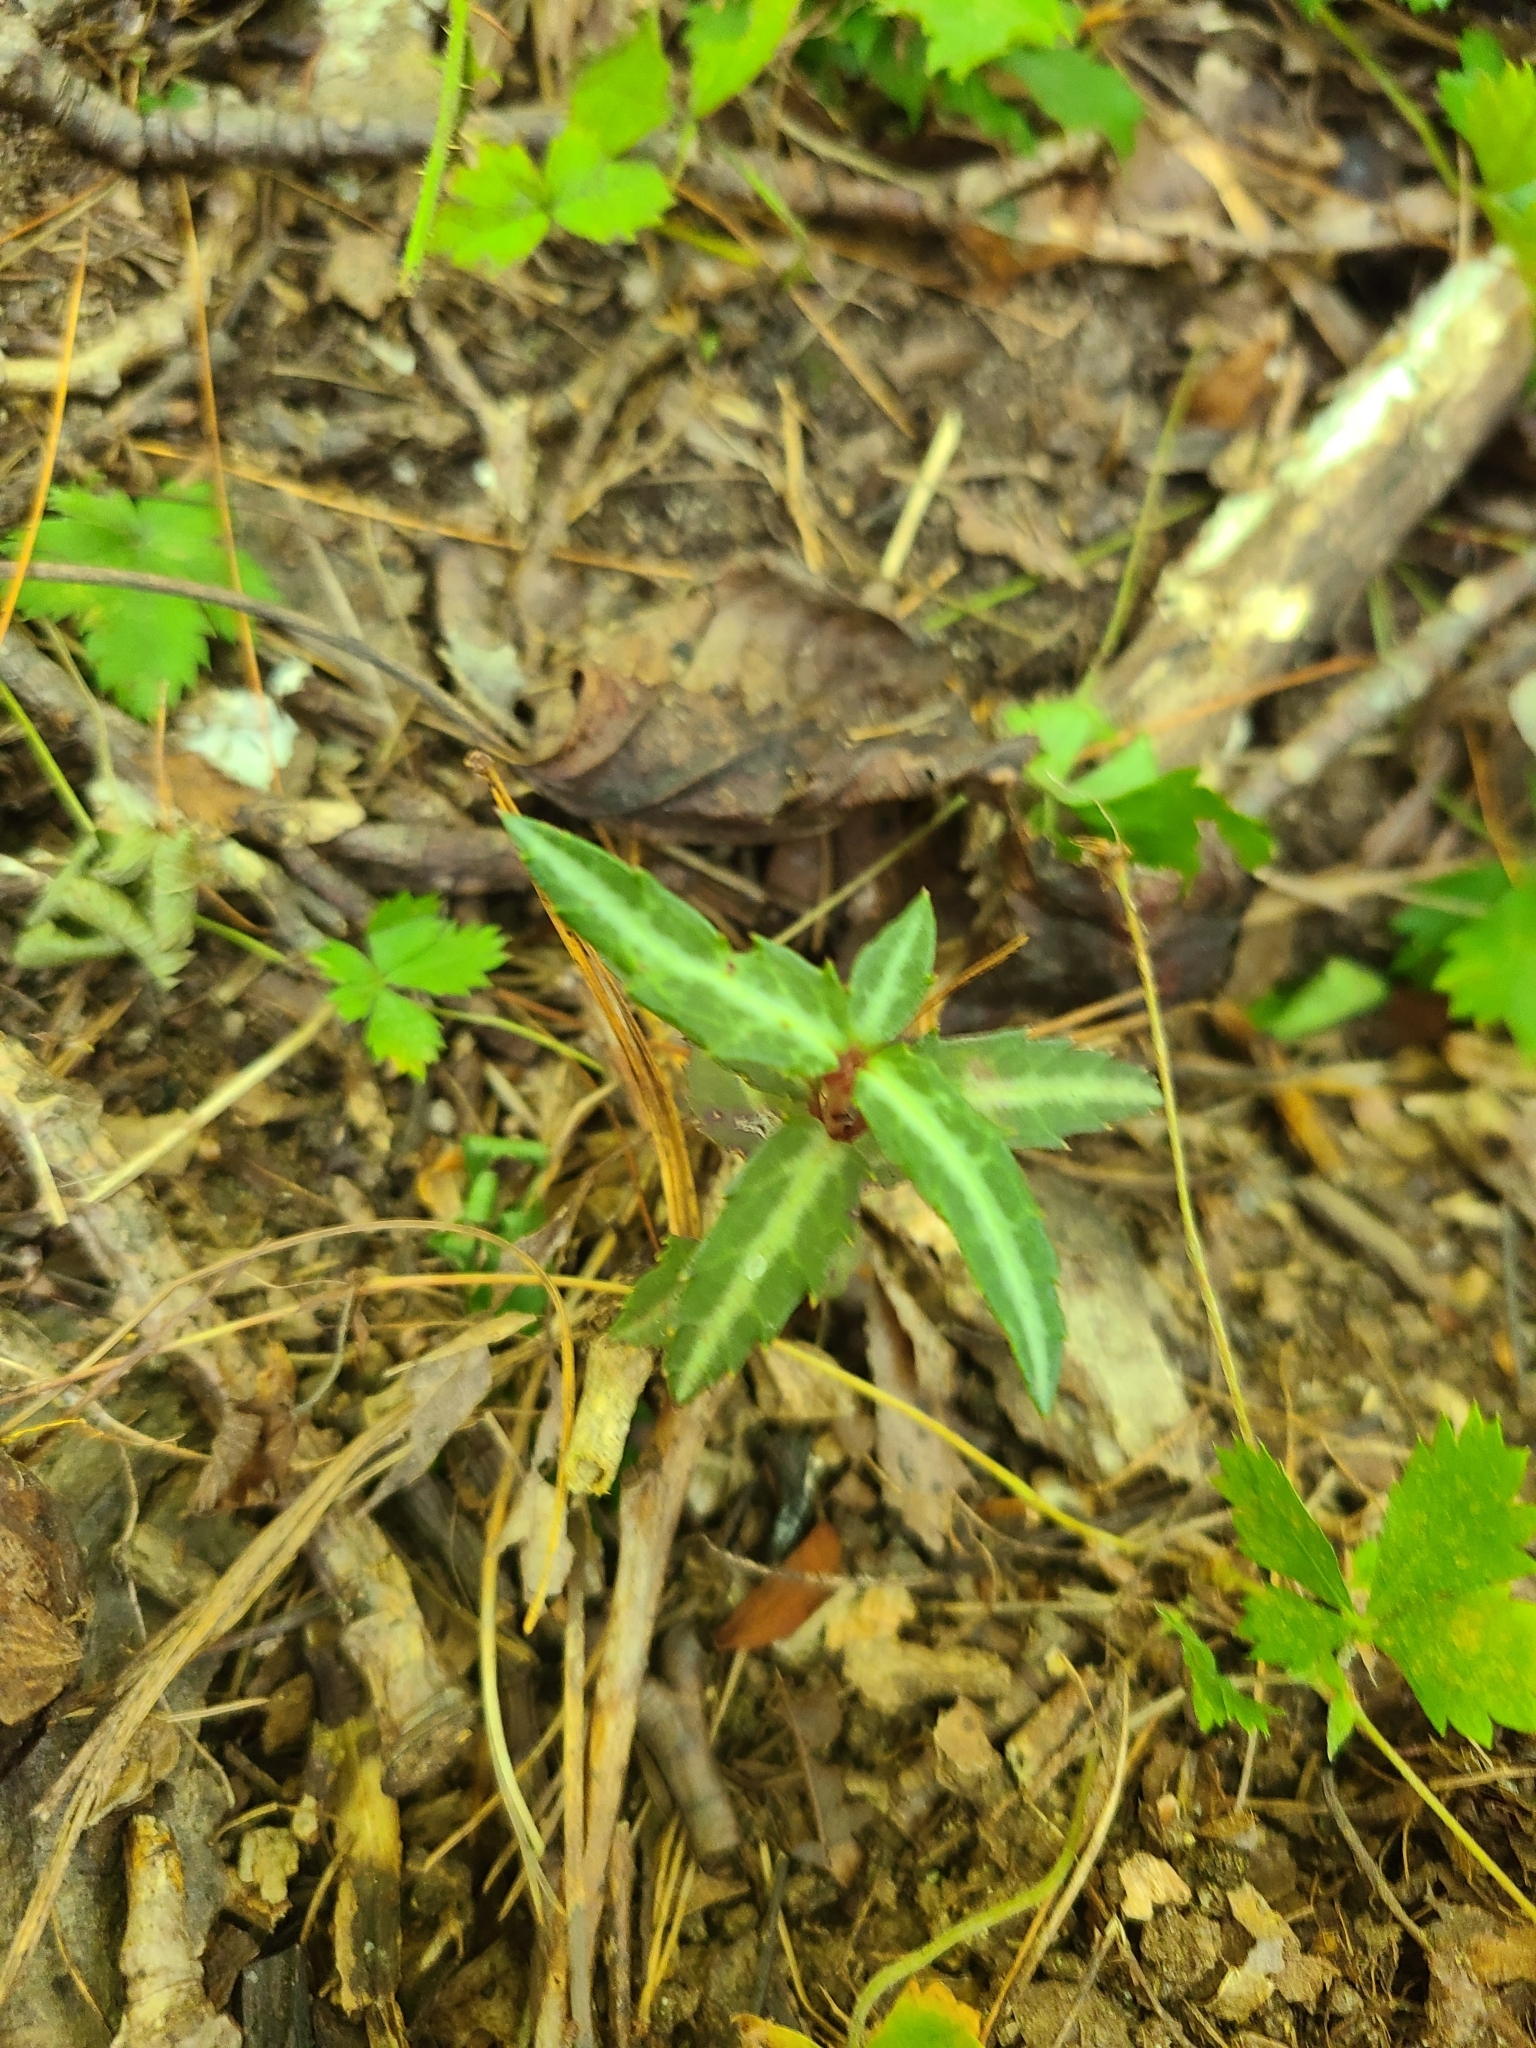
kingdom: Plantae
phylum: Tracheophyta
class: Magnoliopsida
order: Ericales
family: Ericaceae
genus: Chimaphila
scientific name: Chimaphila maculata
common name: Spotted pipsissewa
